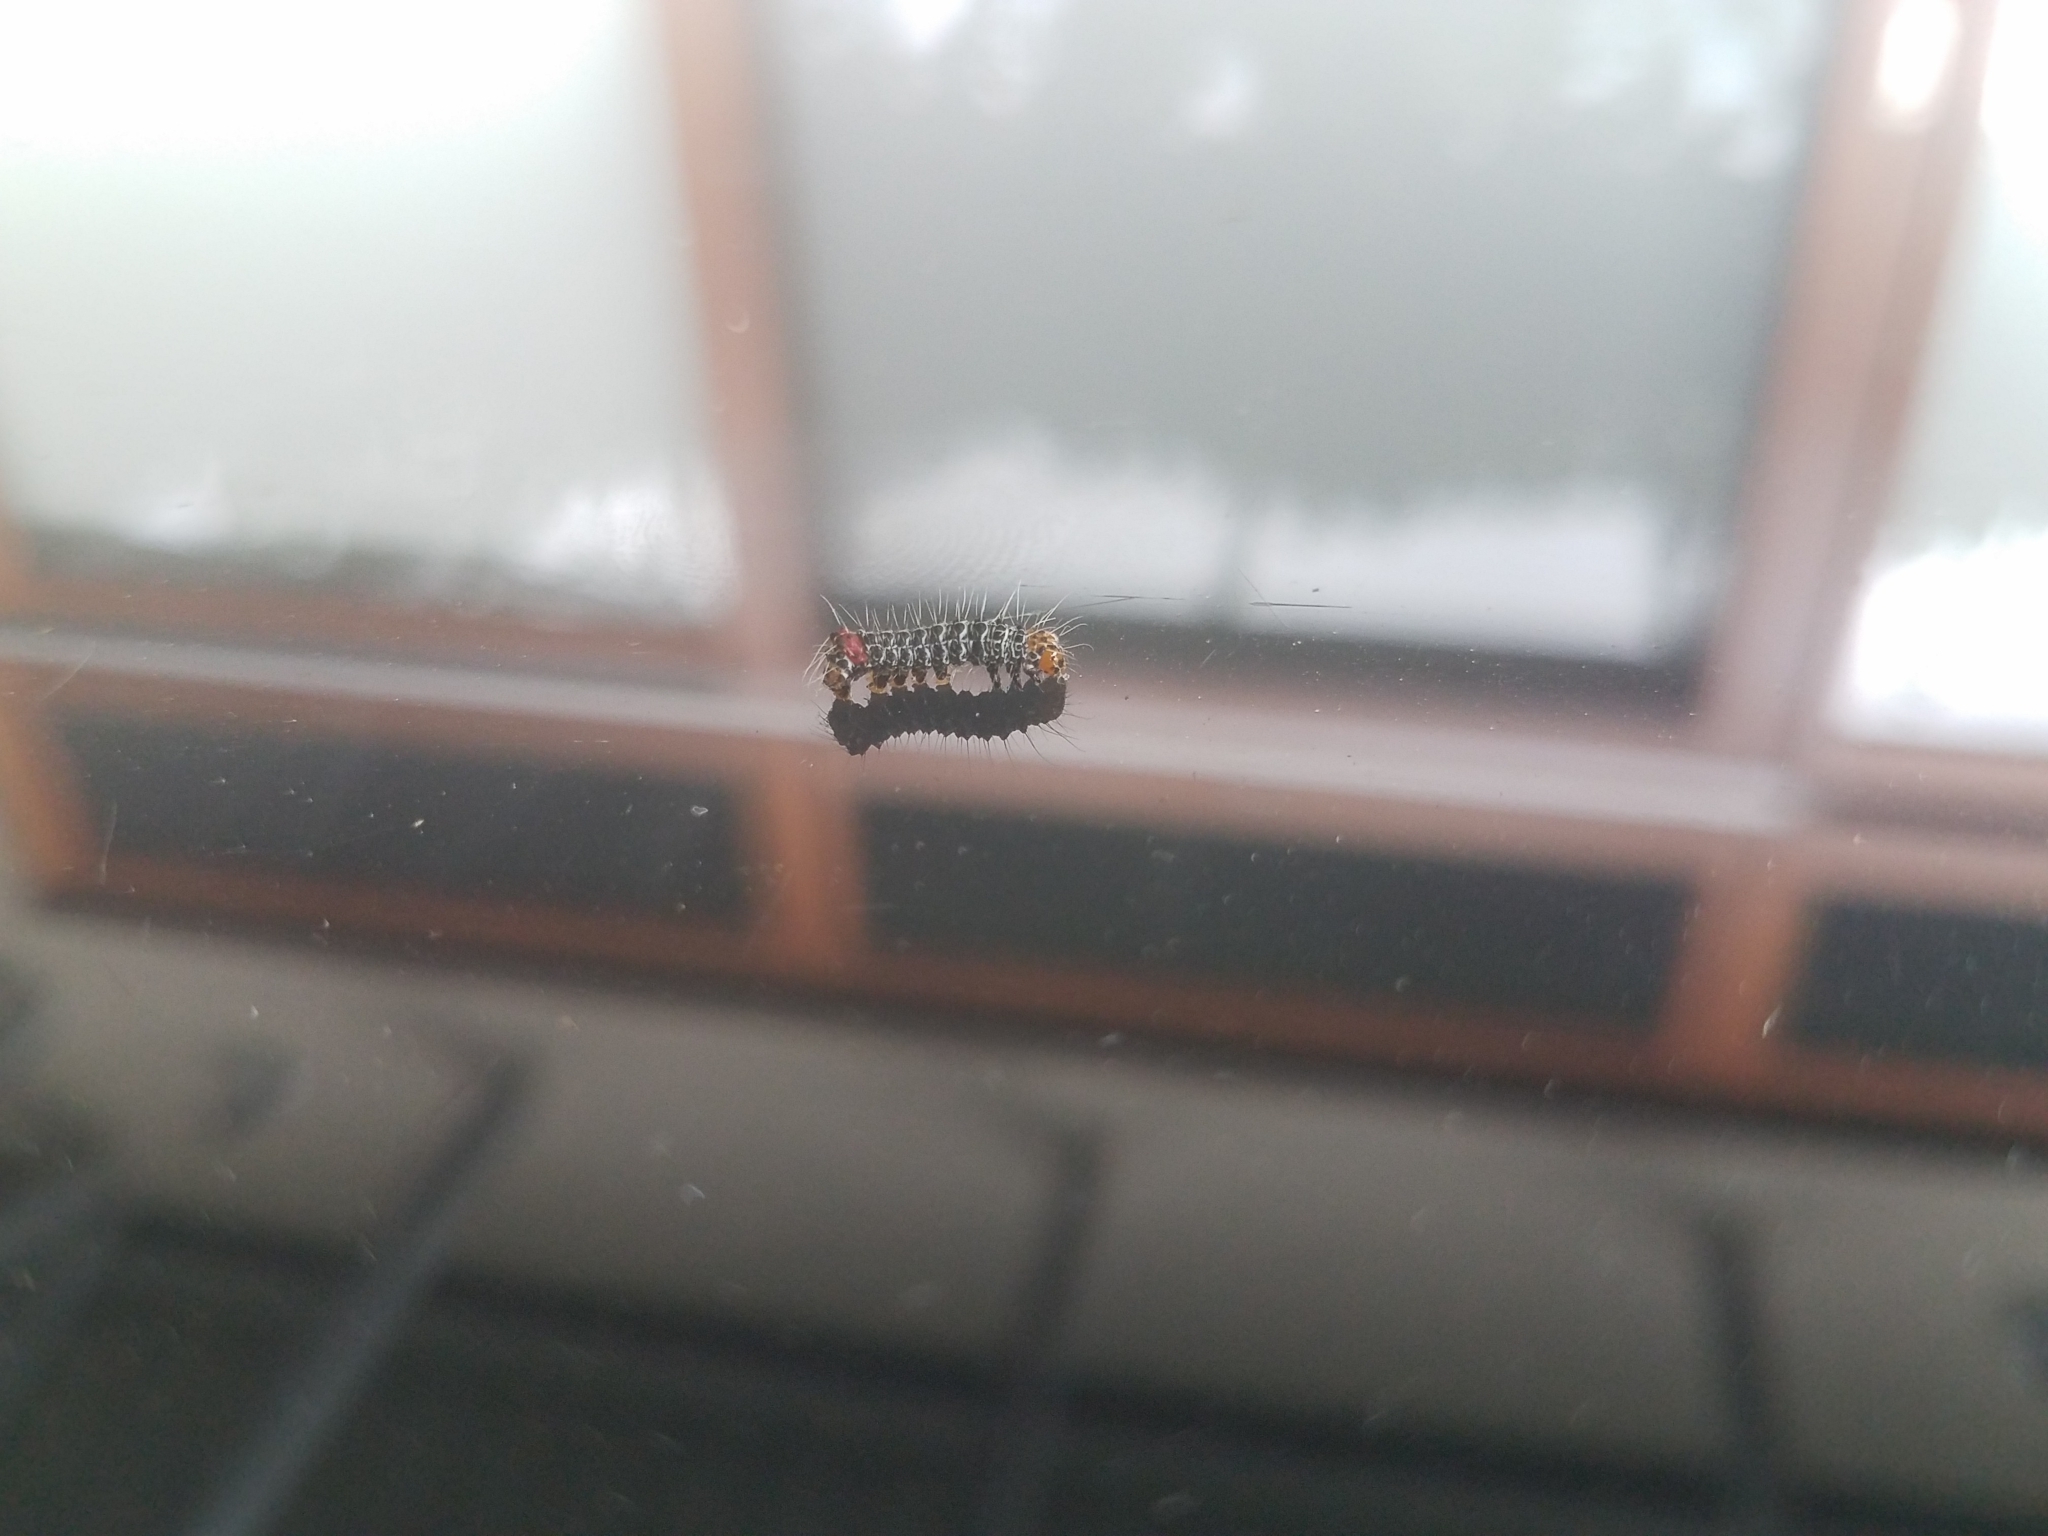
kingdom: Animalia
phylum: Arthropoda
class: Insecta
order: Lepidoptera
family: Noctuidae
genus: Phalaenoides
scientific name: Phalaenoides glycinae
